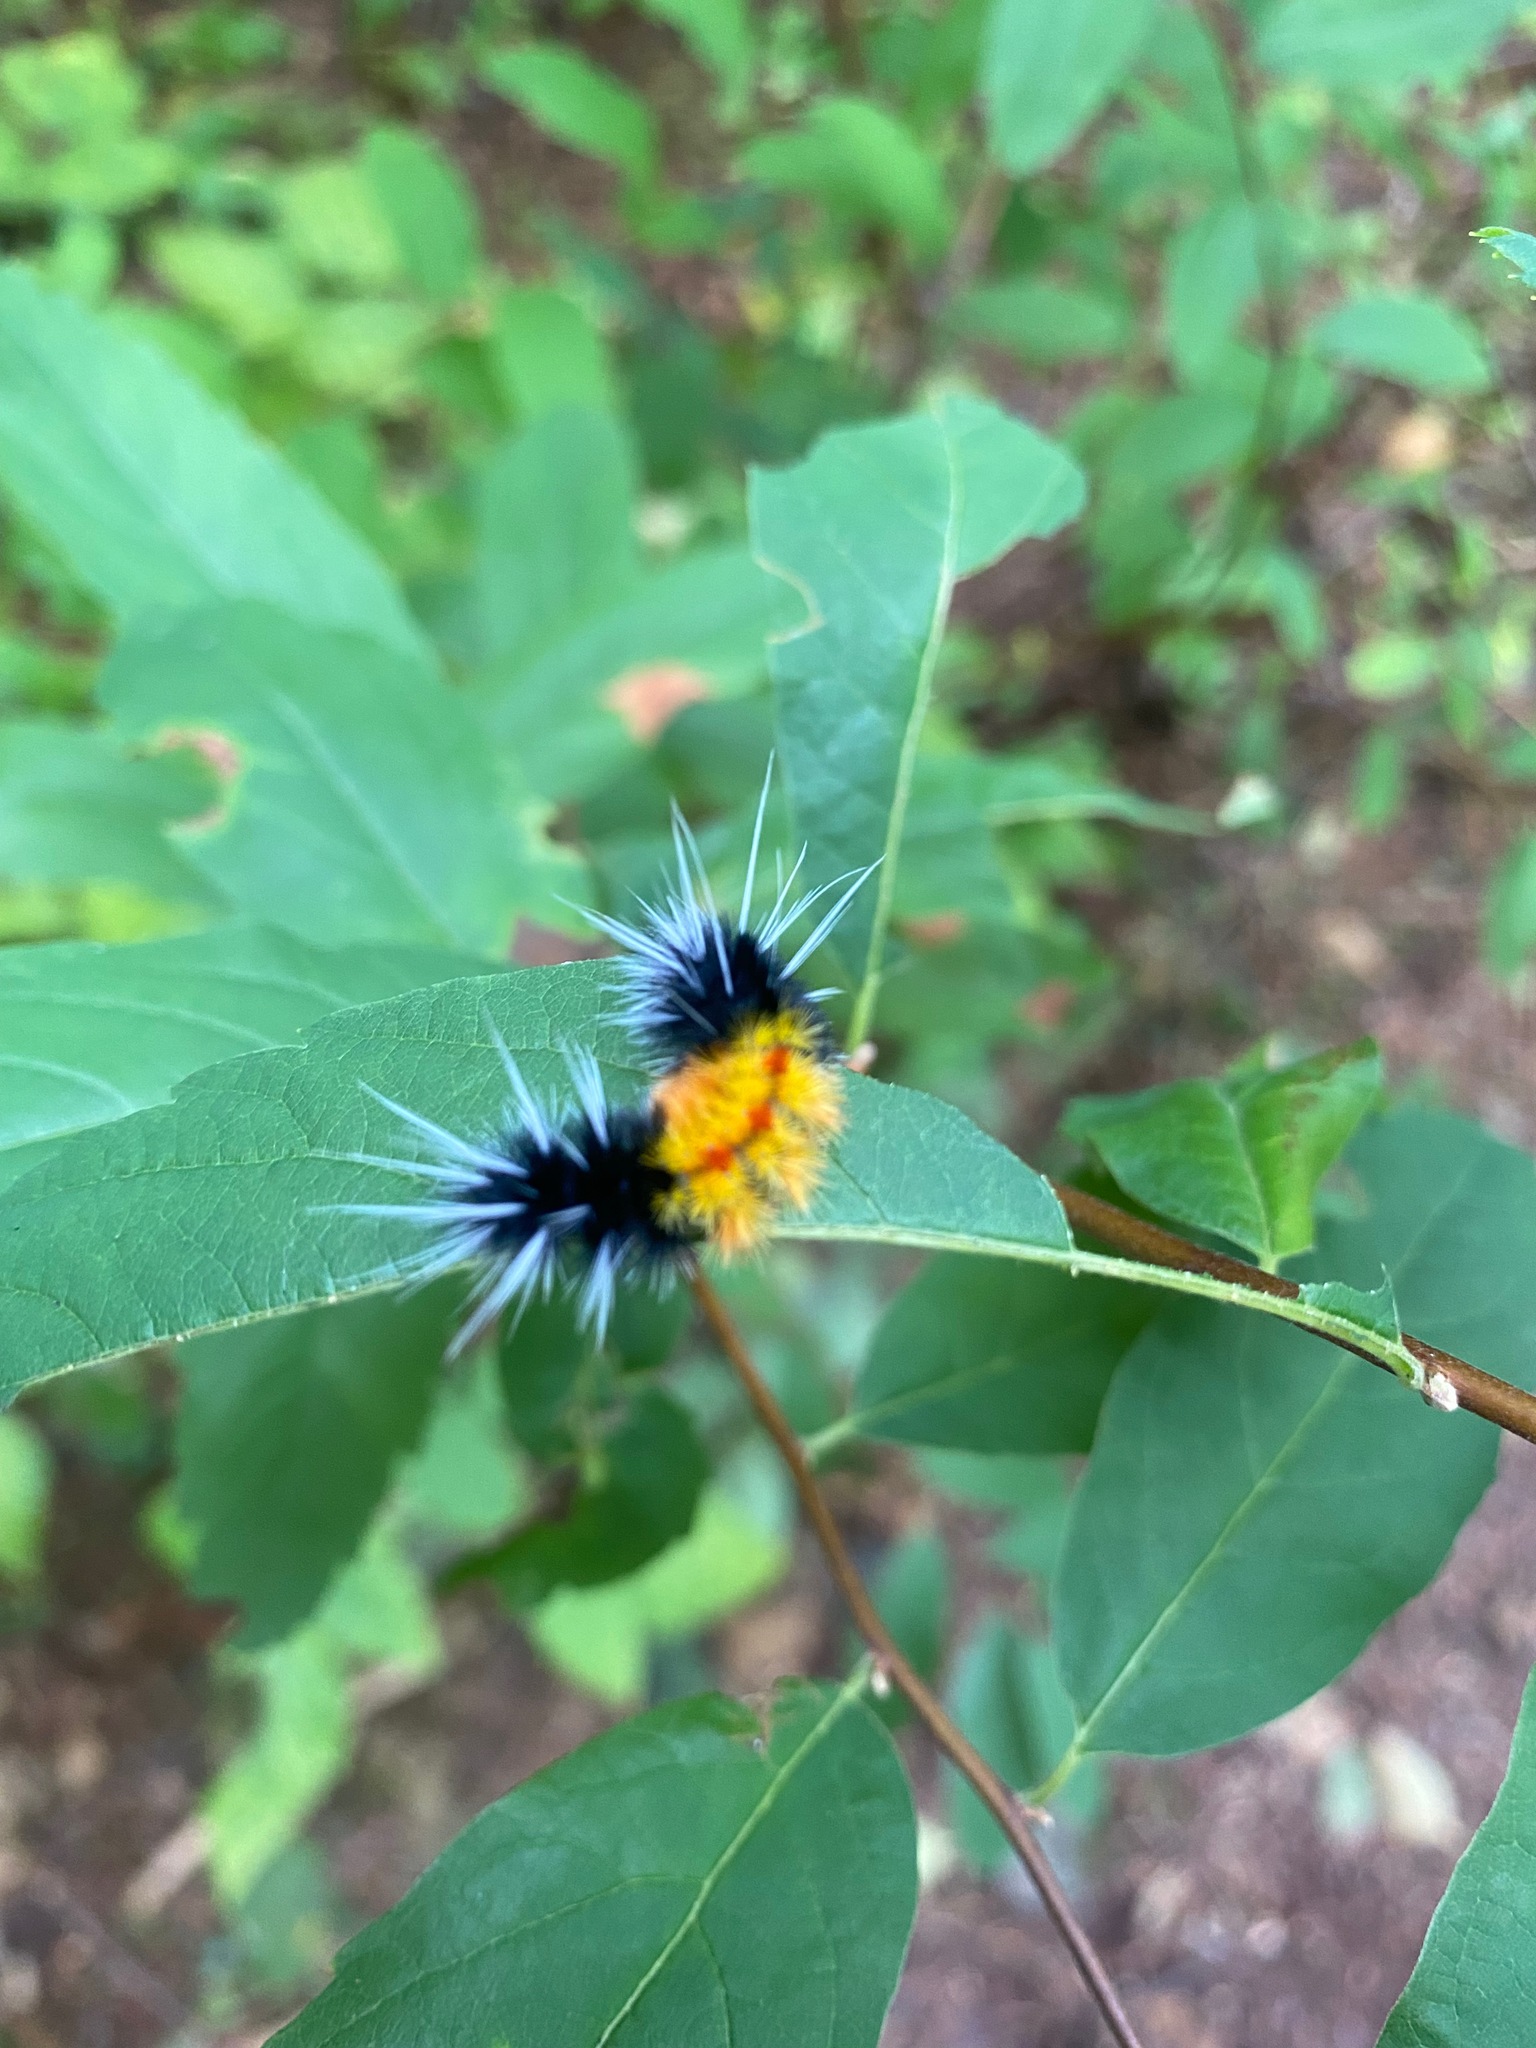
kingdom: Animalia
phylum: Arthropoda
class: Insecta
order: Lepidoptera
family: Erebidae
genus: Lophocampa
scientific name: Lophocampa maculata
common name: Spotted tussock moth
